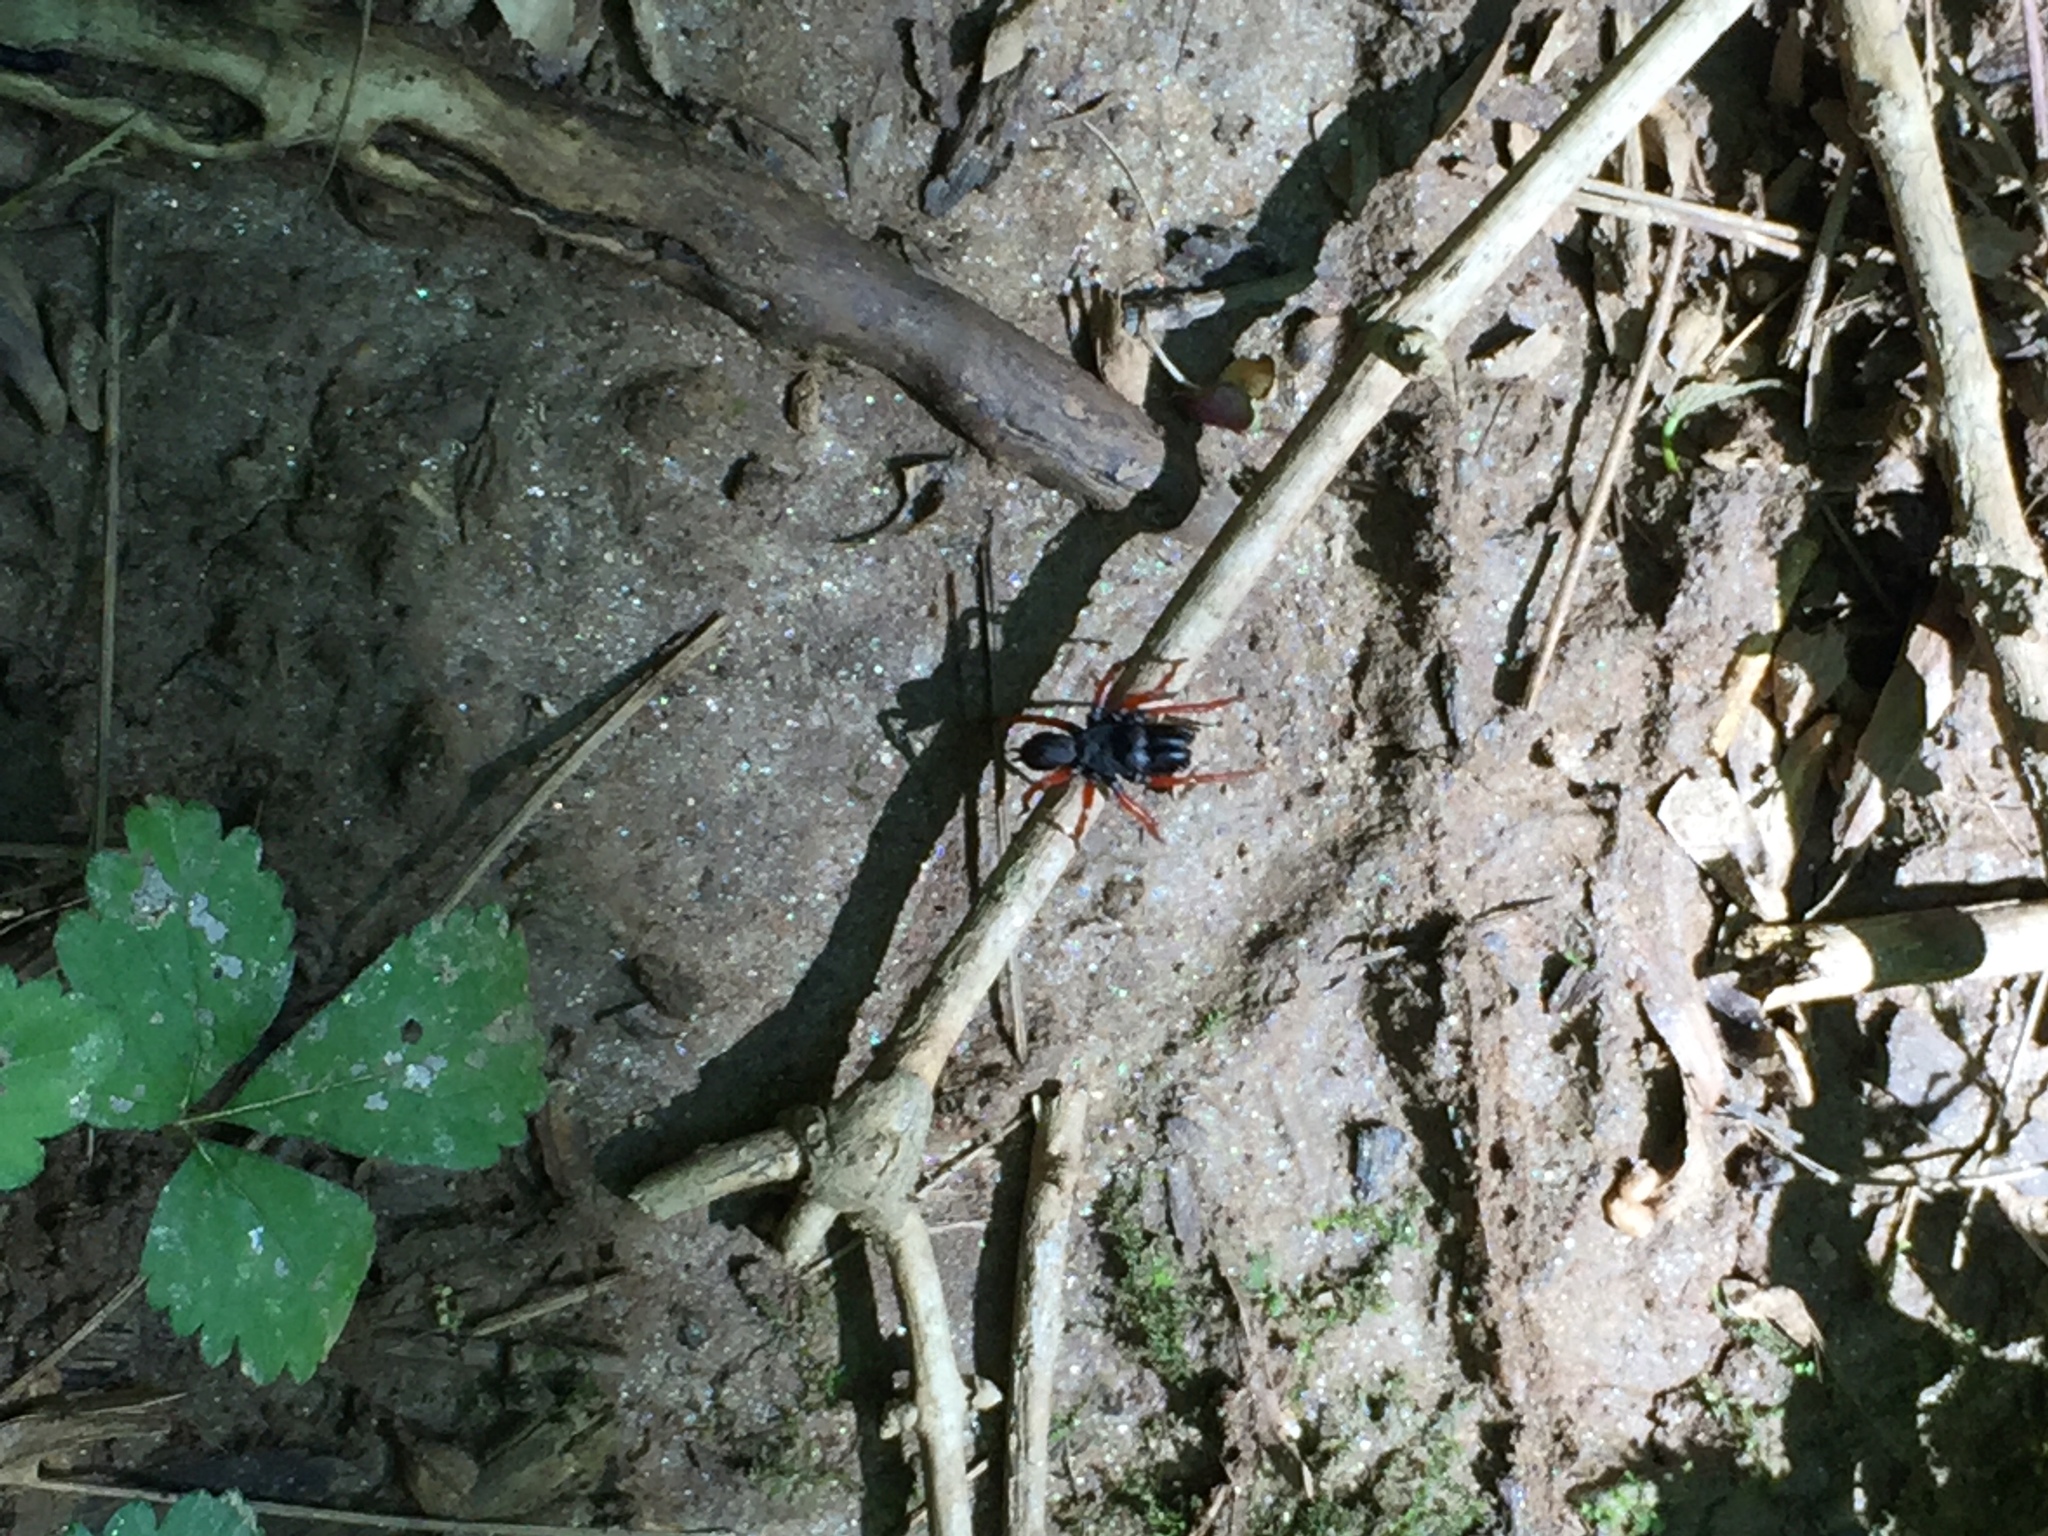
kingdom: Animalia
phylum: Arthropoda
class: Arachnida
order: Araneae
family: Atypidae
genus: Sphodros
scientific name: Sphodros rufipes
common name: Red-legged purseweb spider
